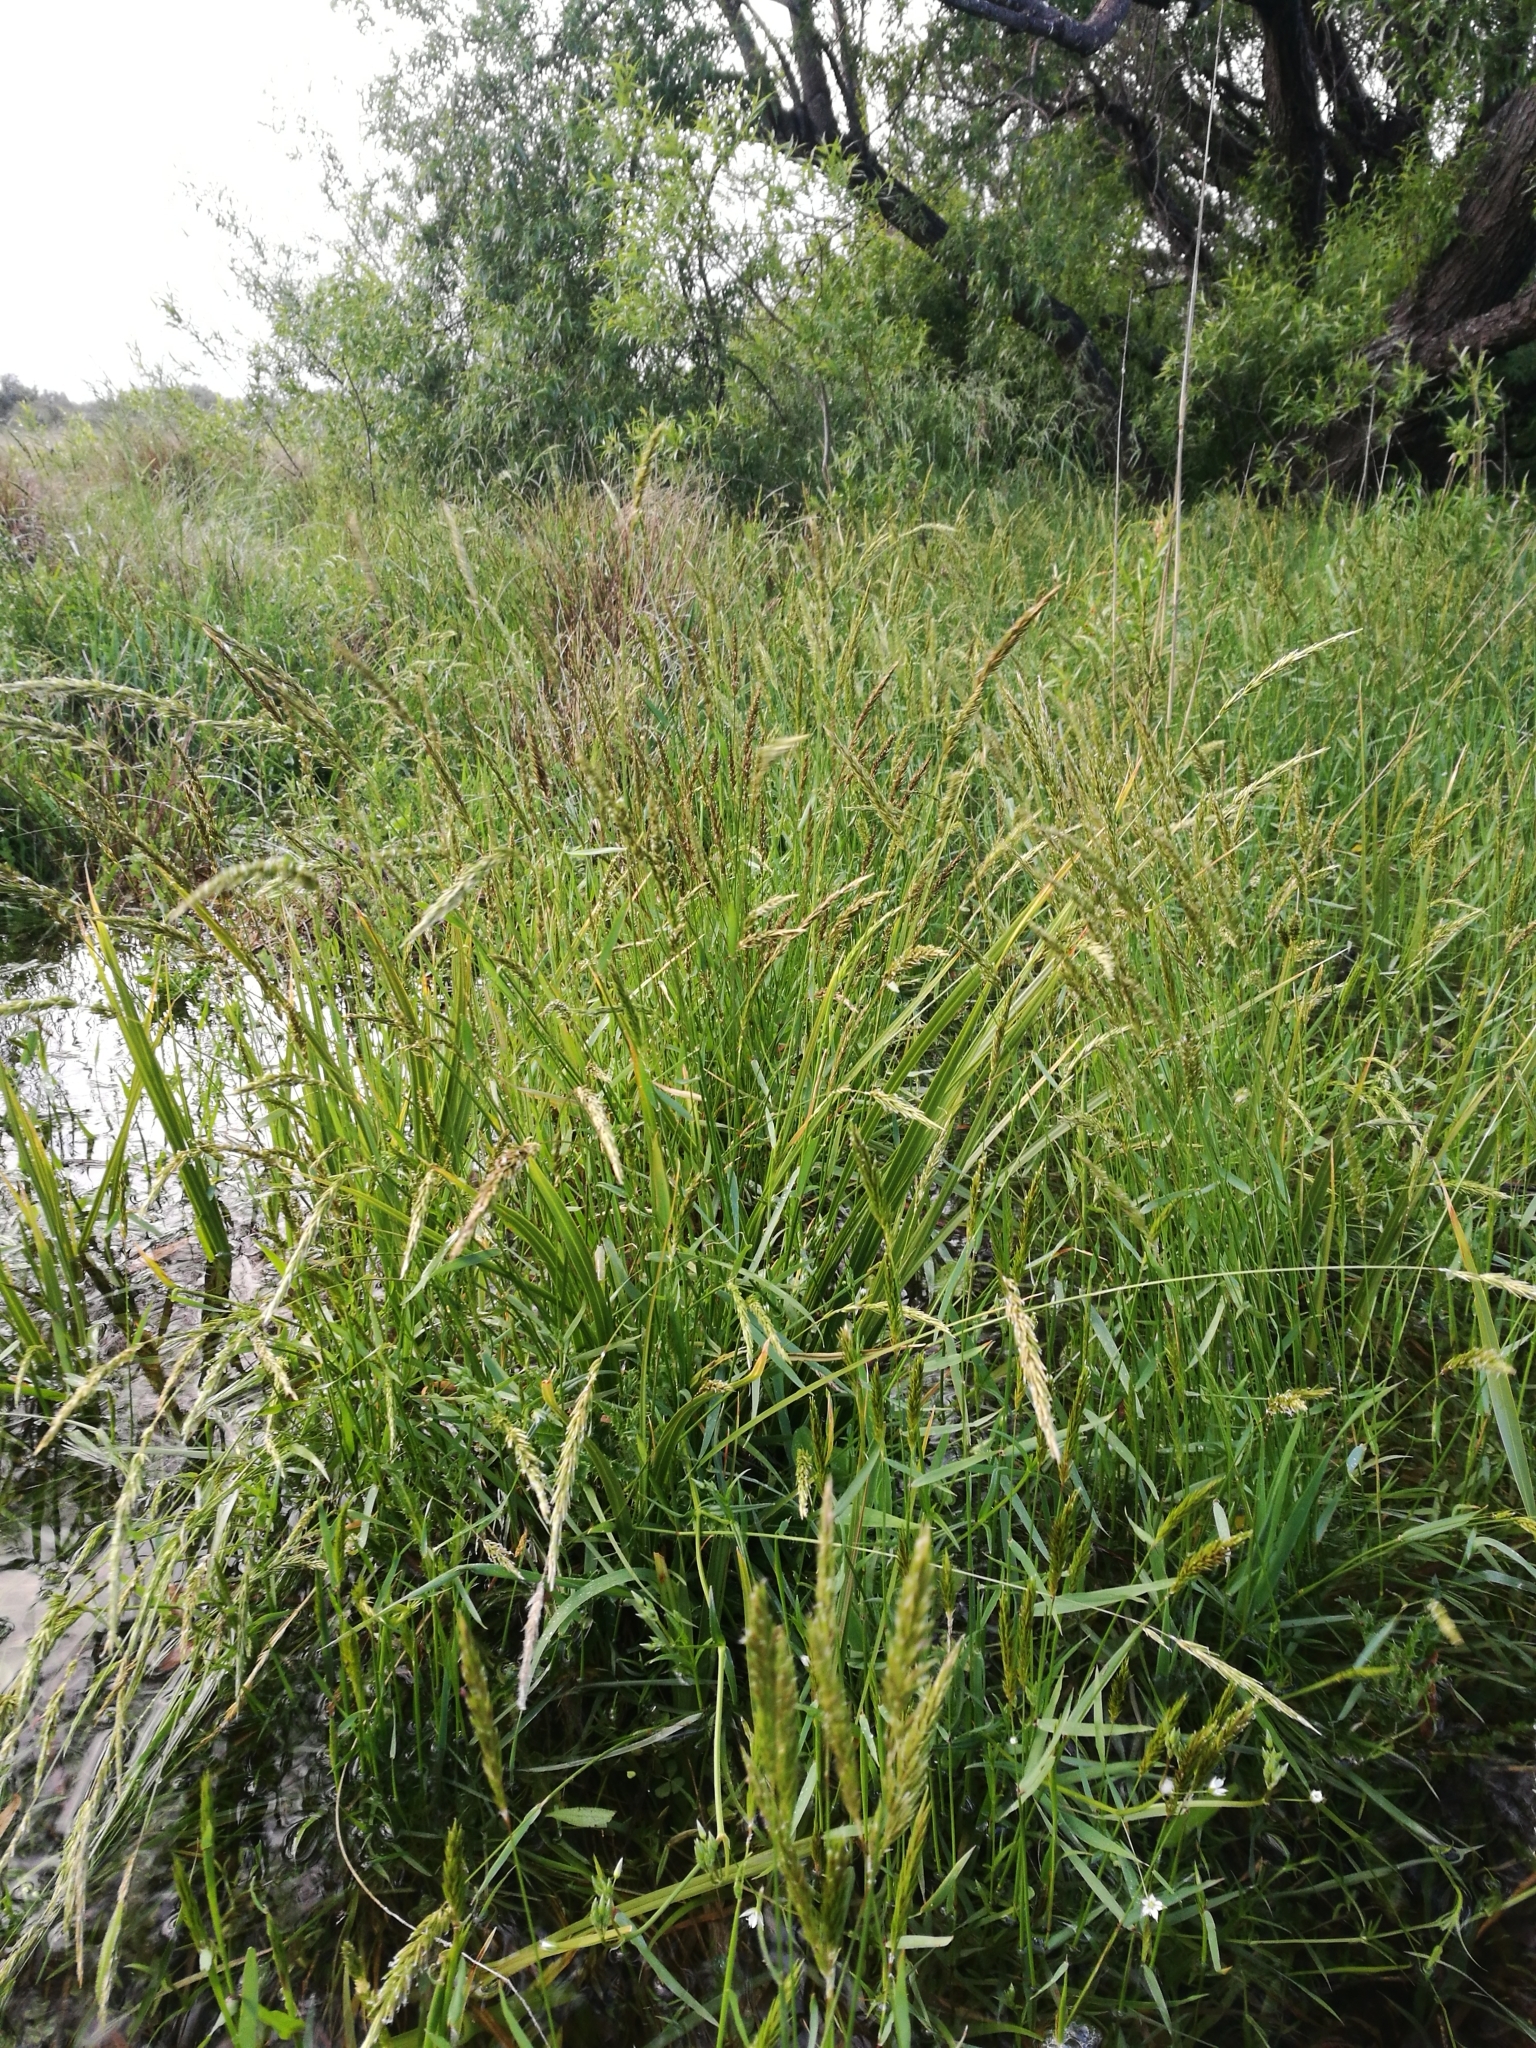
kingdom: Plantae
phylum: Tracheophyta
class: Liliopsida
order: Poales
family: Poaceae
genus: Anthoxanthum
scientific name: Anthoxanthum odoratum
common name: Sweet vernalgrass
